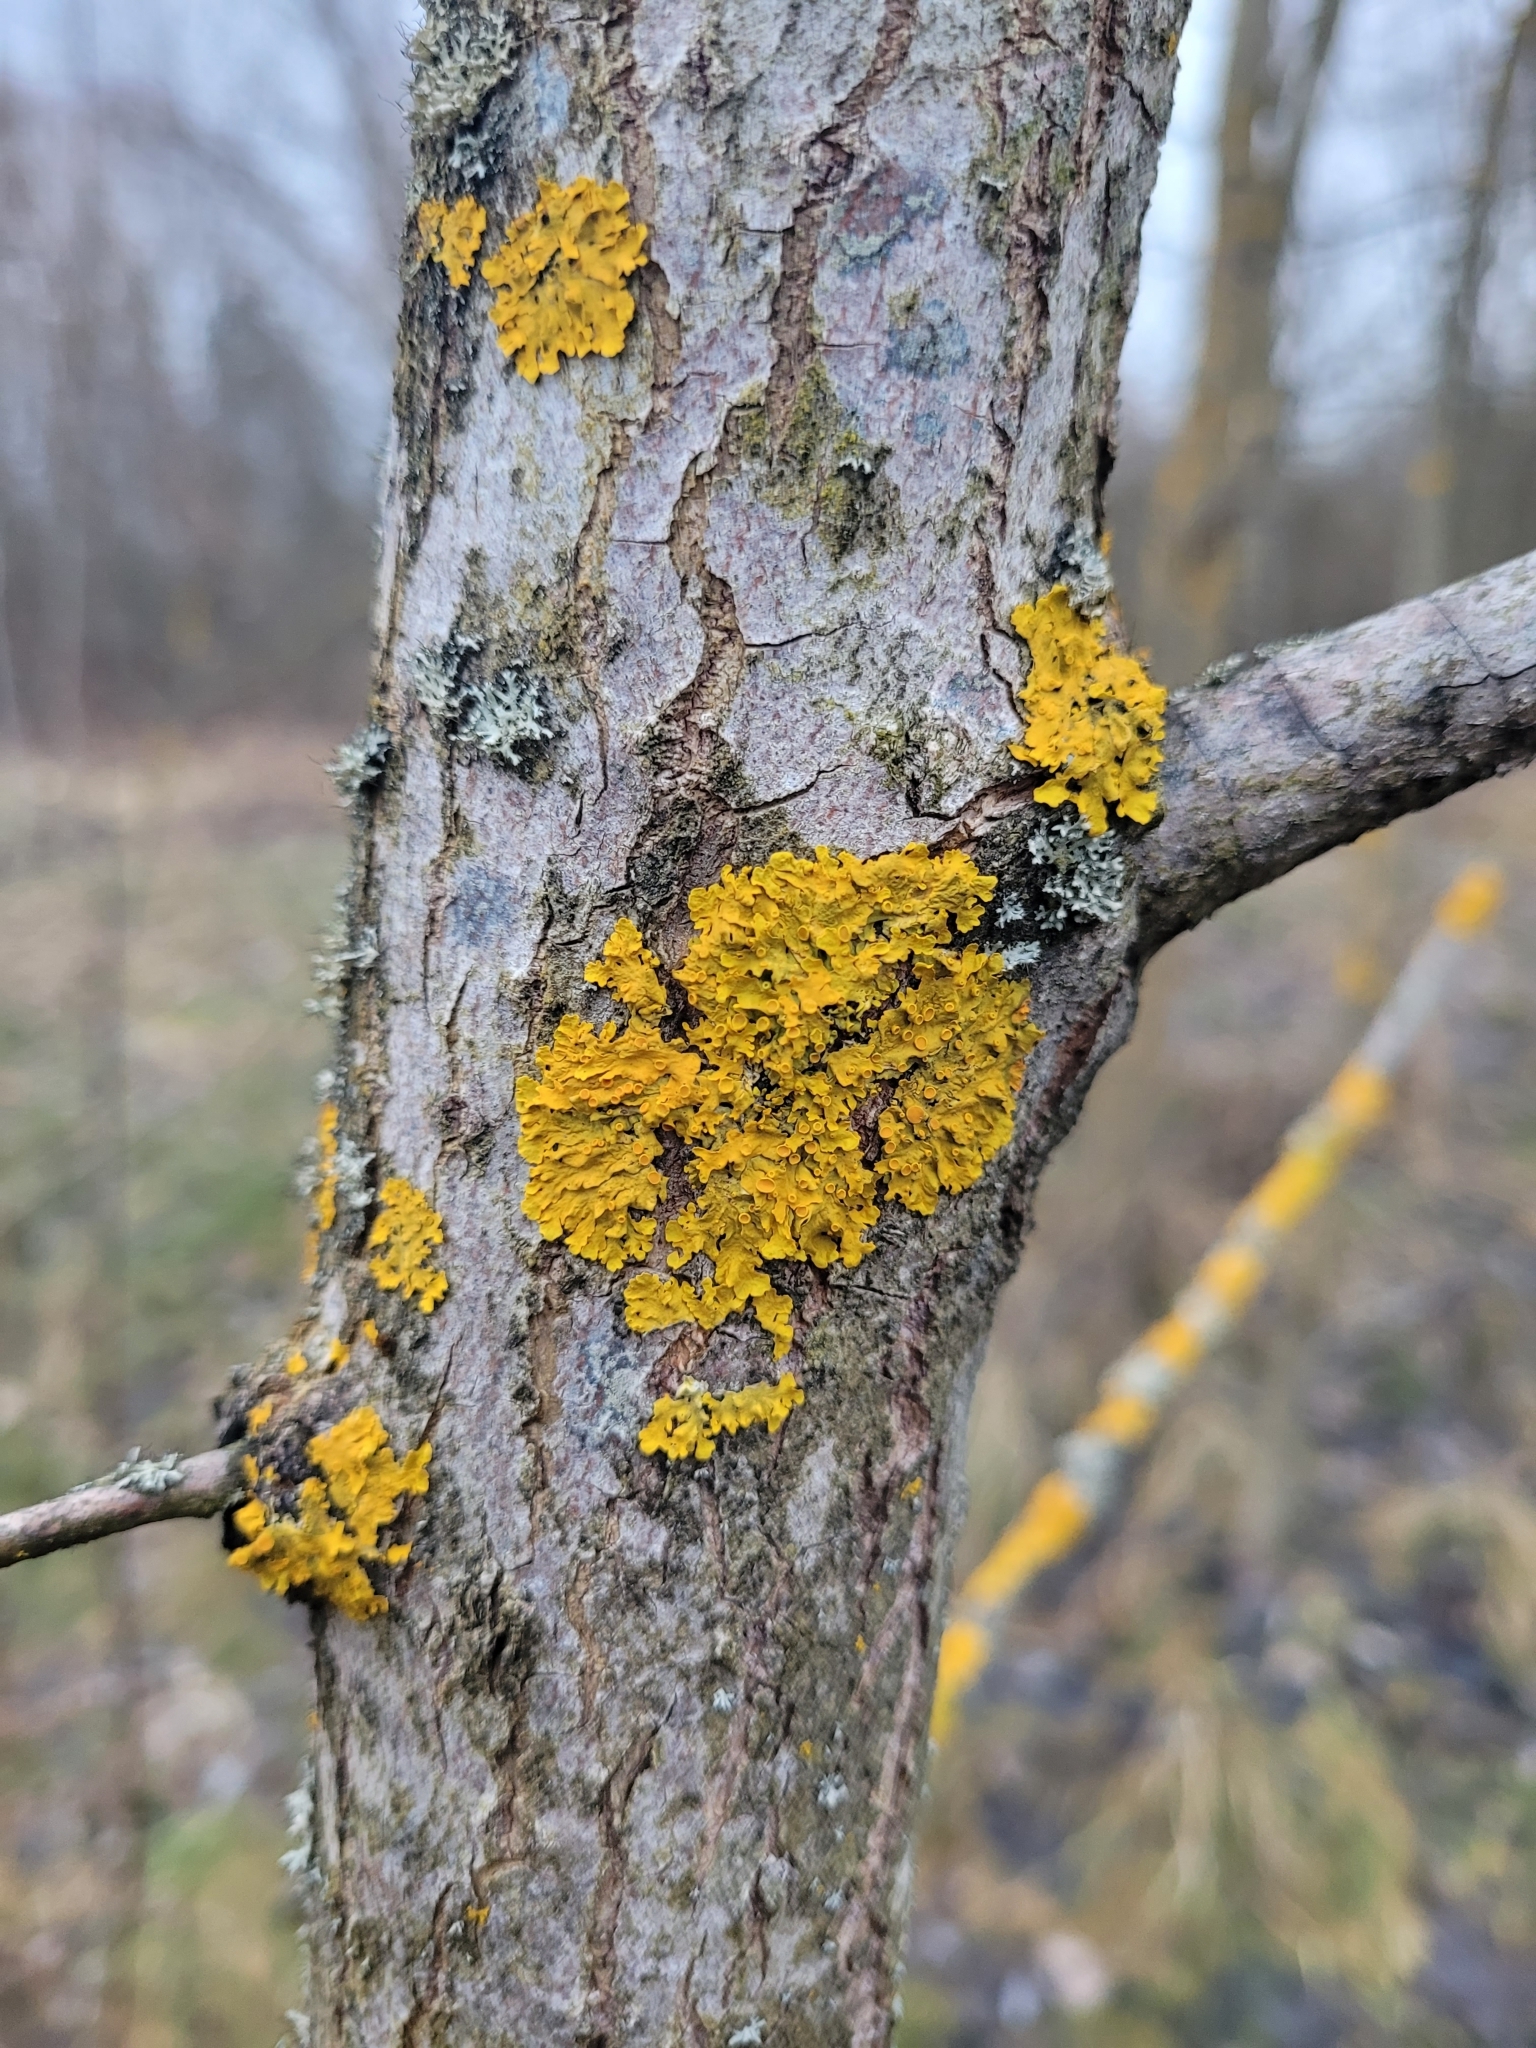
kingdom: Fungi
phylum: Ascomycota
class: Lecanoromycetes
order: Teloschistales
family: Teloschistaceae
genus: Xanthoria
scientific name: Xanthoria parietina
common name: Common orange lichen
